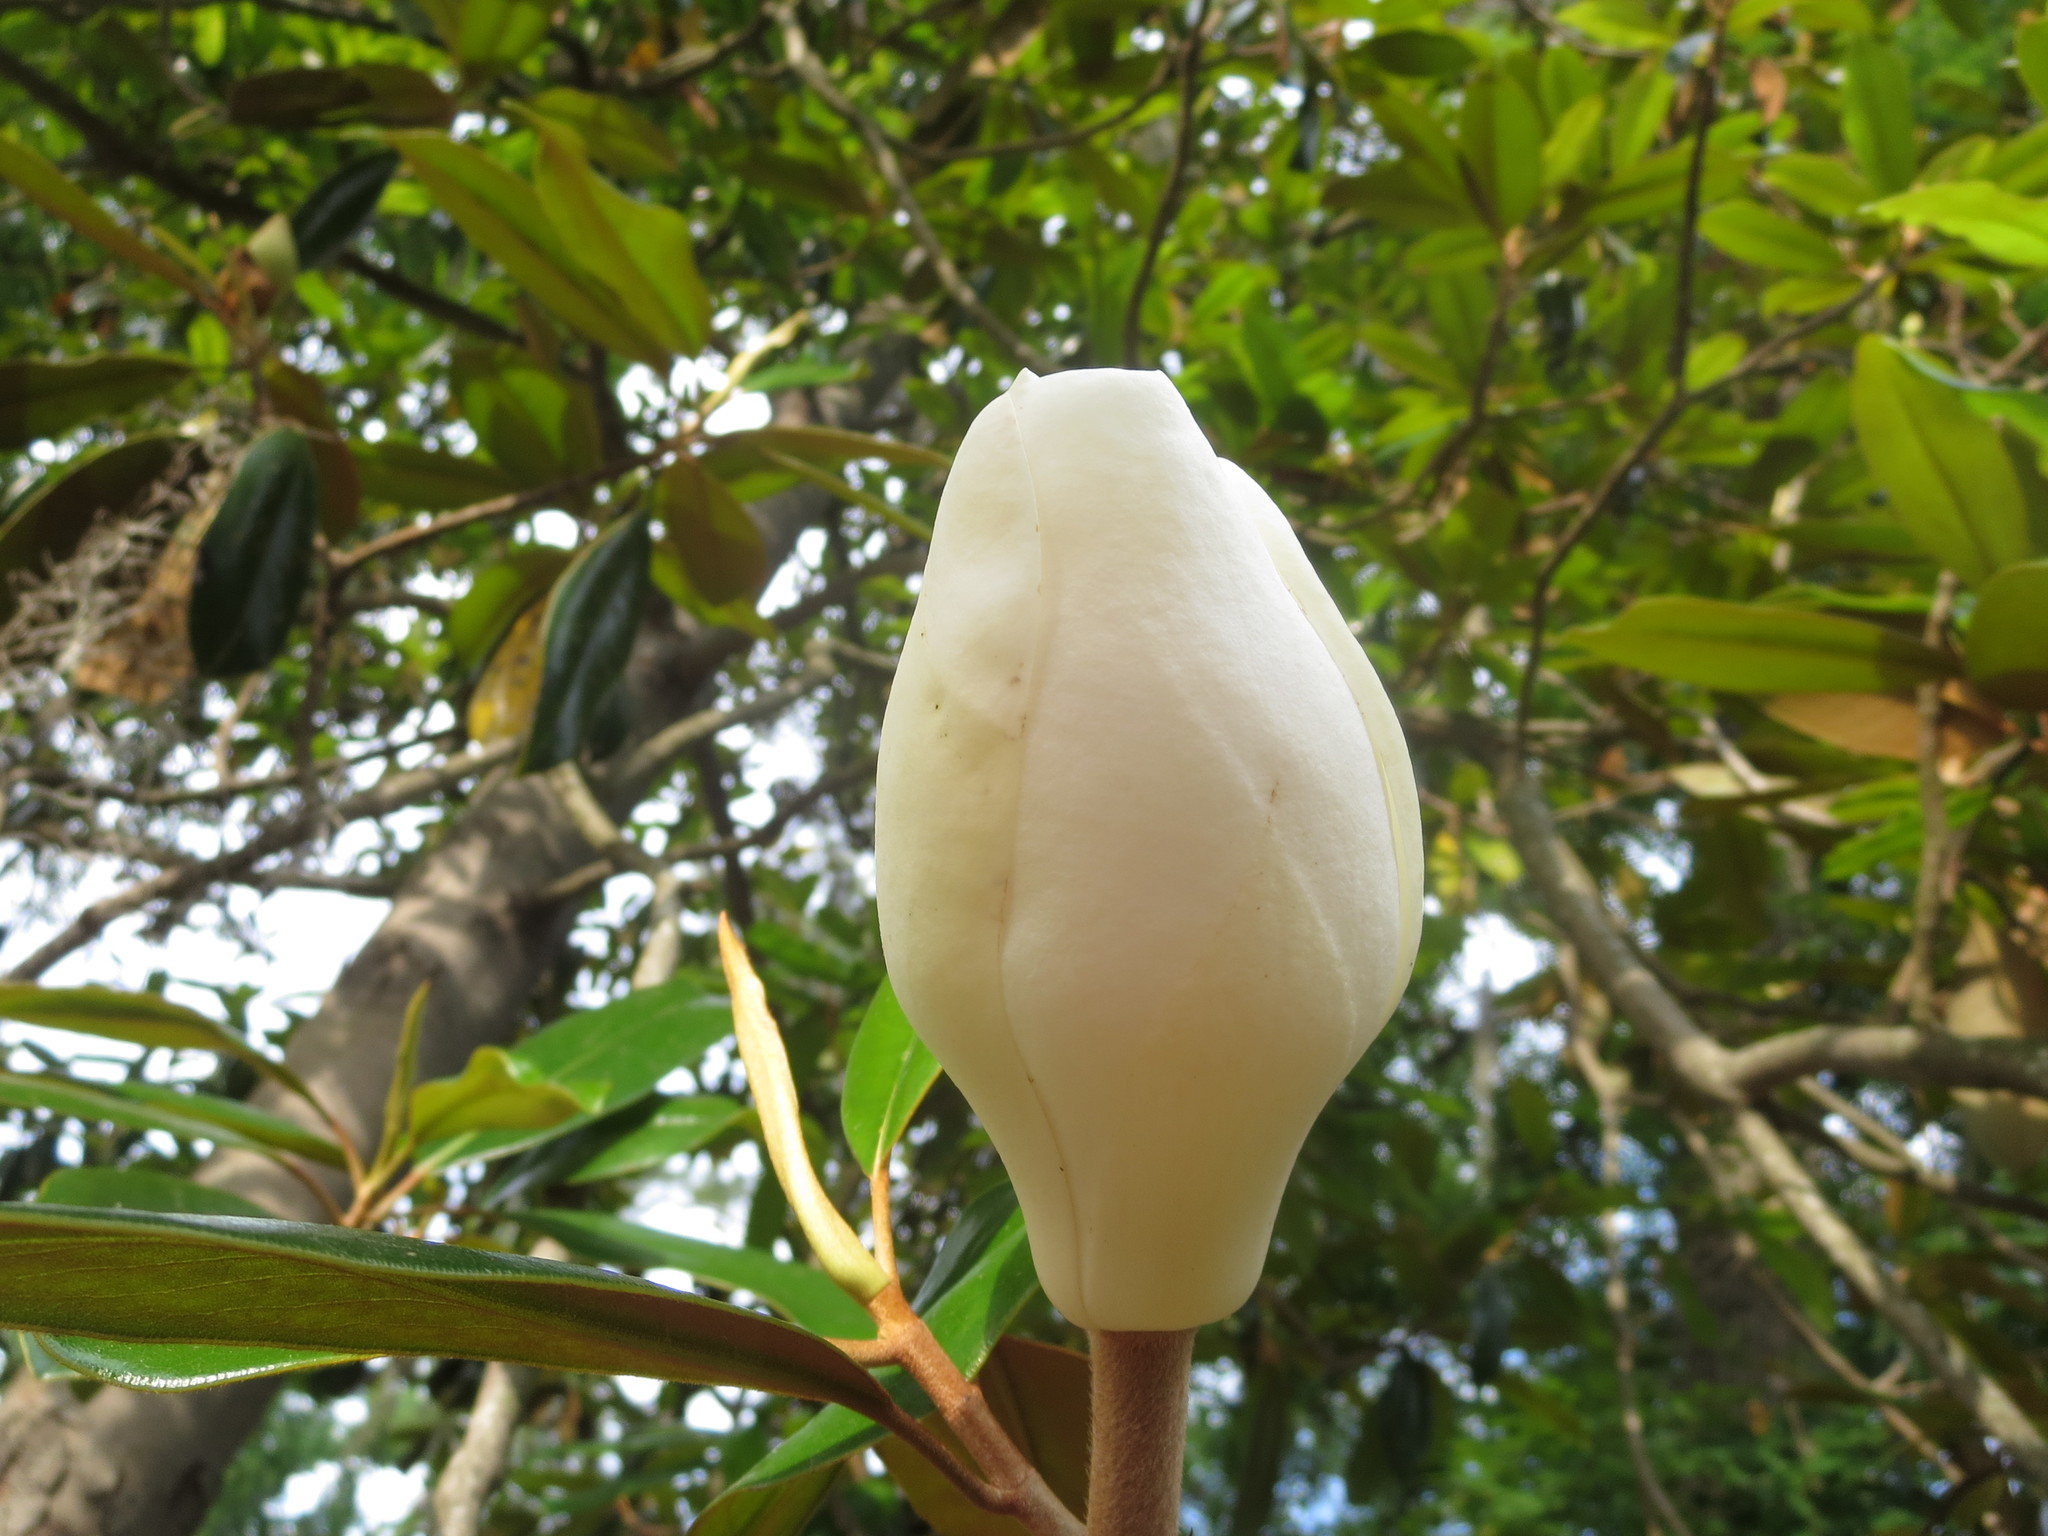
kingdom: Plantae
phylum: Tracheophyta
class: Magnoliopsida
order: Magnoliales
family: Magnoliaceae
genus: Magnolia
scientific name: Magnolia grandiflora
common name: Southern magnolia
